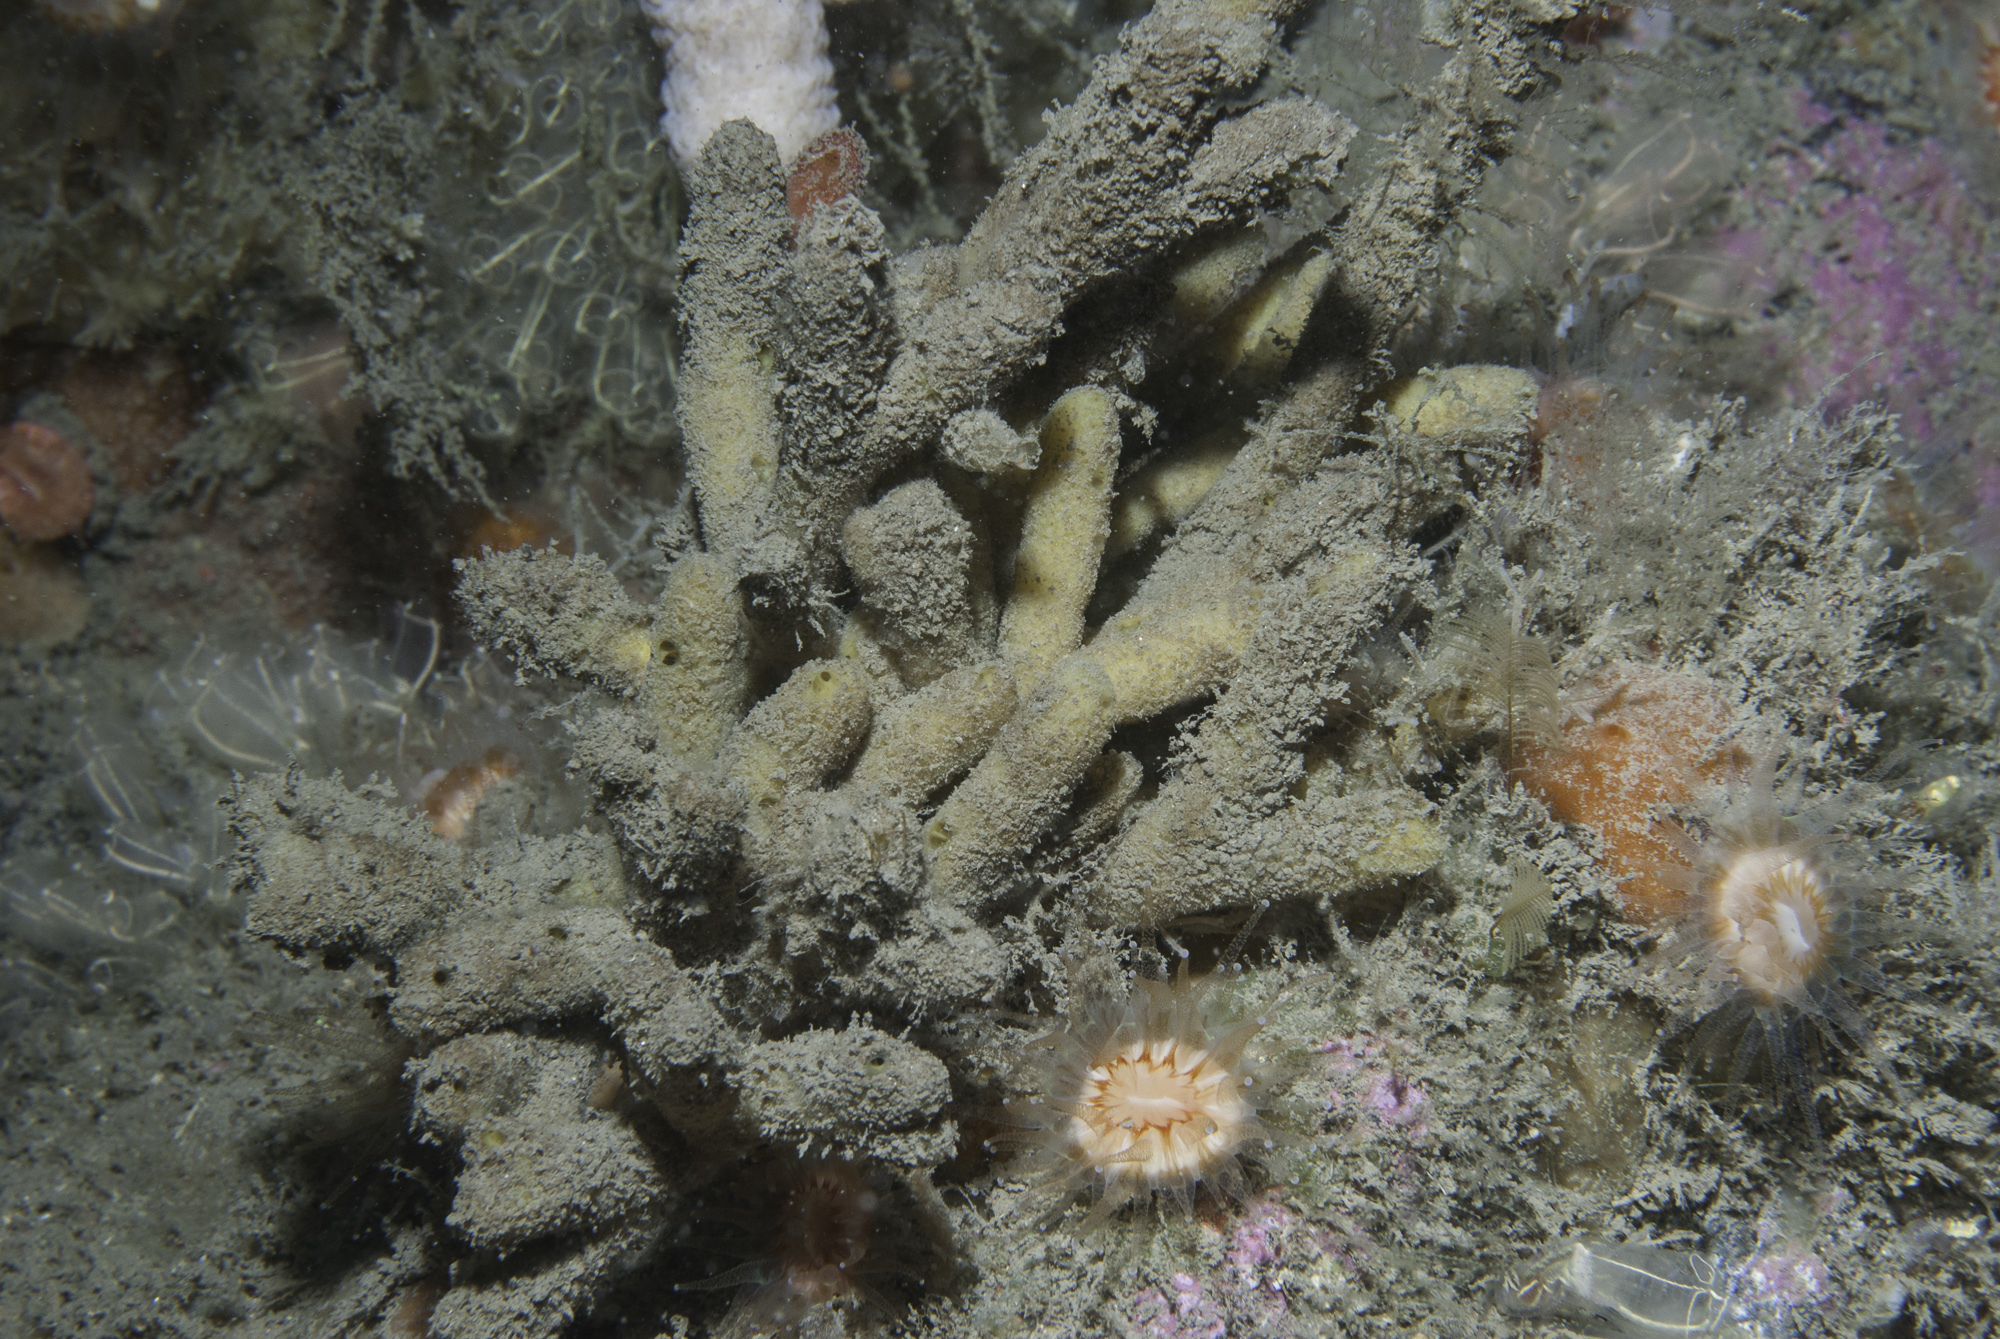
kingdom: Animalia
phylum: Porifera
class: Demospongiae
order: Axinellida
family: Stelligeridae
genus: Stelligera
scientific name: Stelligera stuposa
